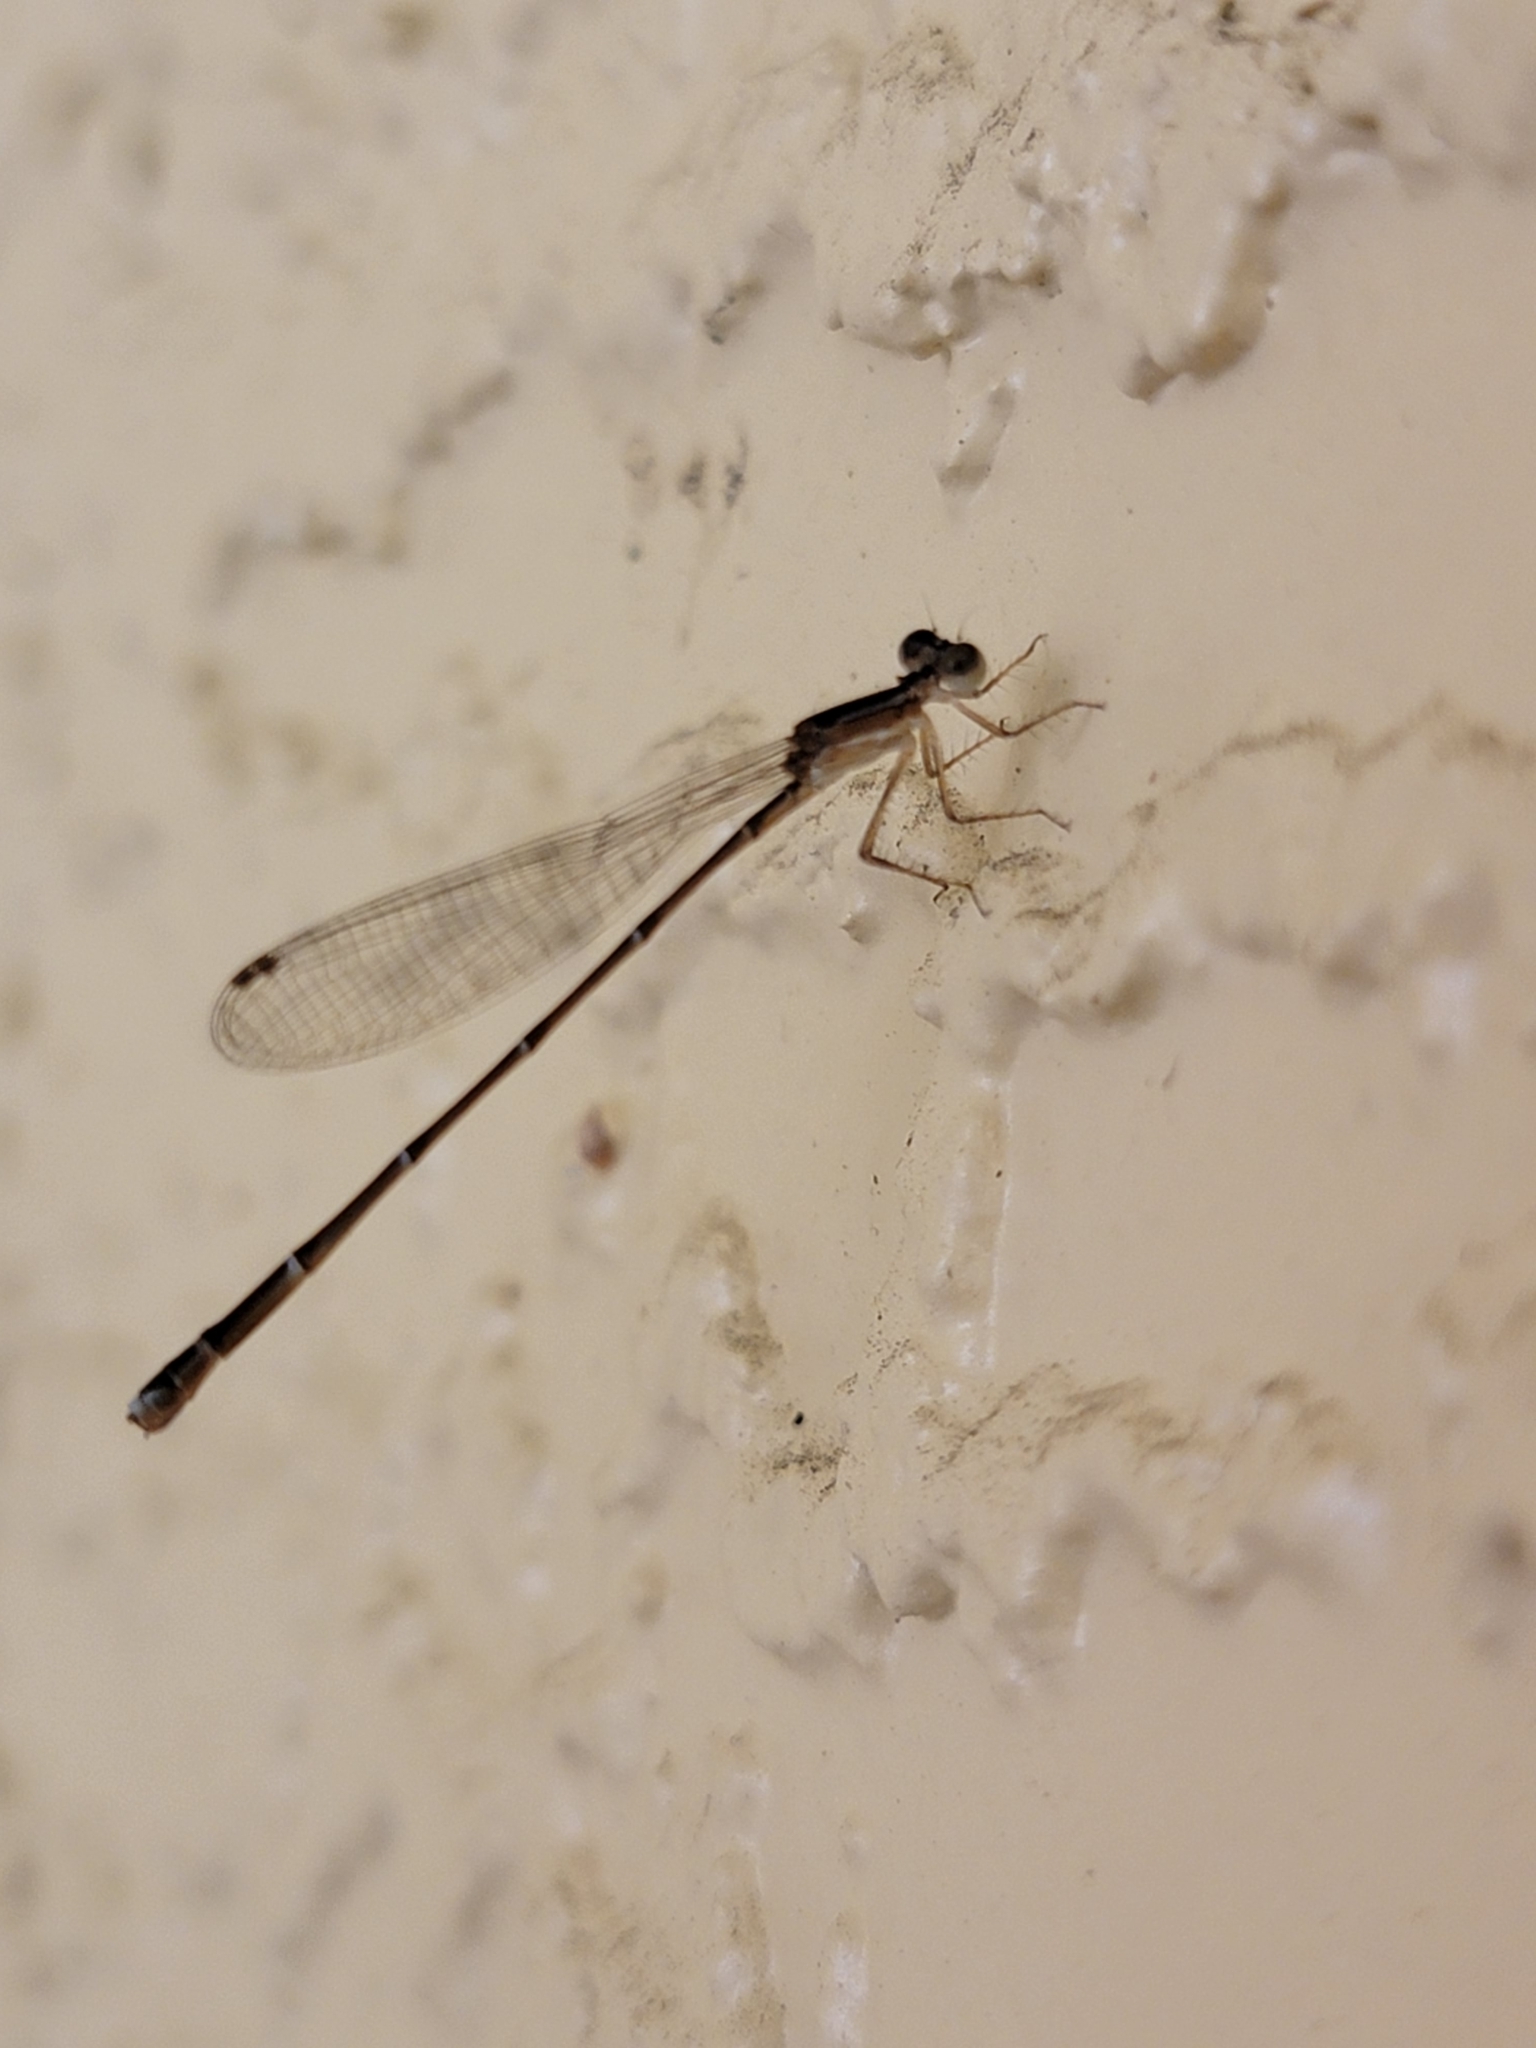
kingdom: Animalia
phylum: Arthropoda
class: Insecta
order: Odonata
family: Coenagrionidae
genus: Nehalennia
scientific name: Nehalennia pallidula
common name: Everglades sprite
